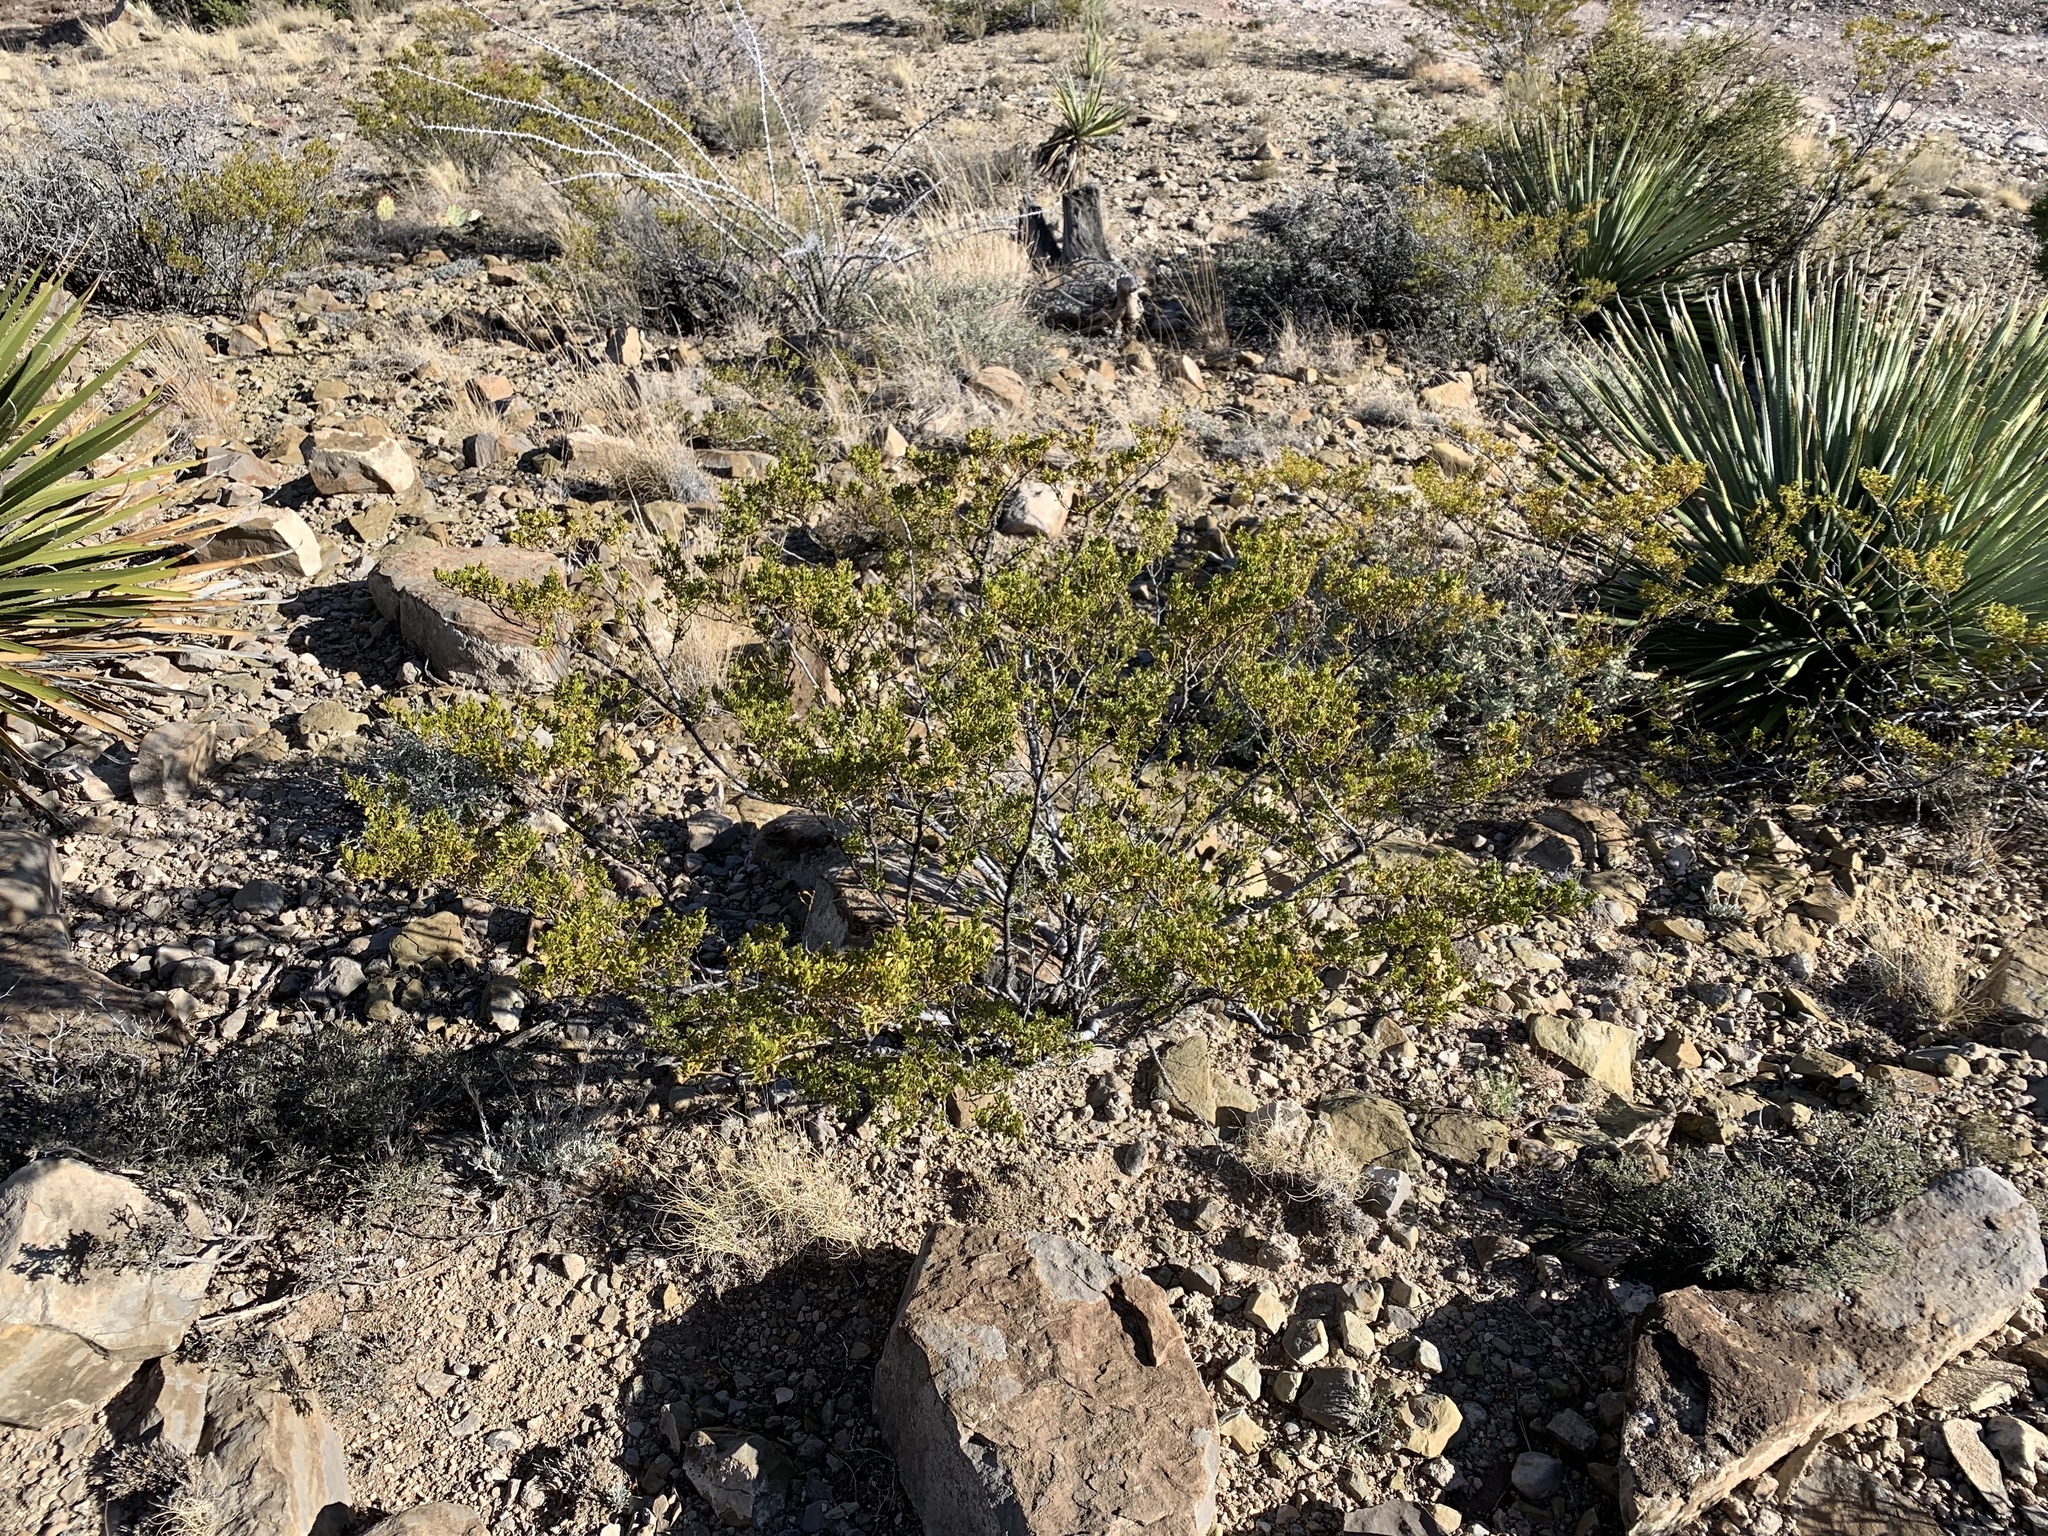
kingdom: Plantae
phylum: Tracheophyta
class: Magnoliopsida
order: Zygophyllales
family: Zygophyllaceae
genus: Larrea
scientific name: Larrea tridentata
